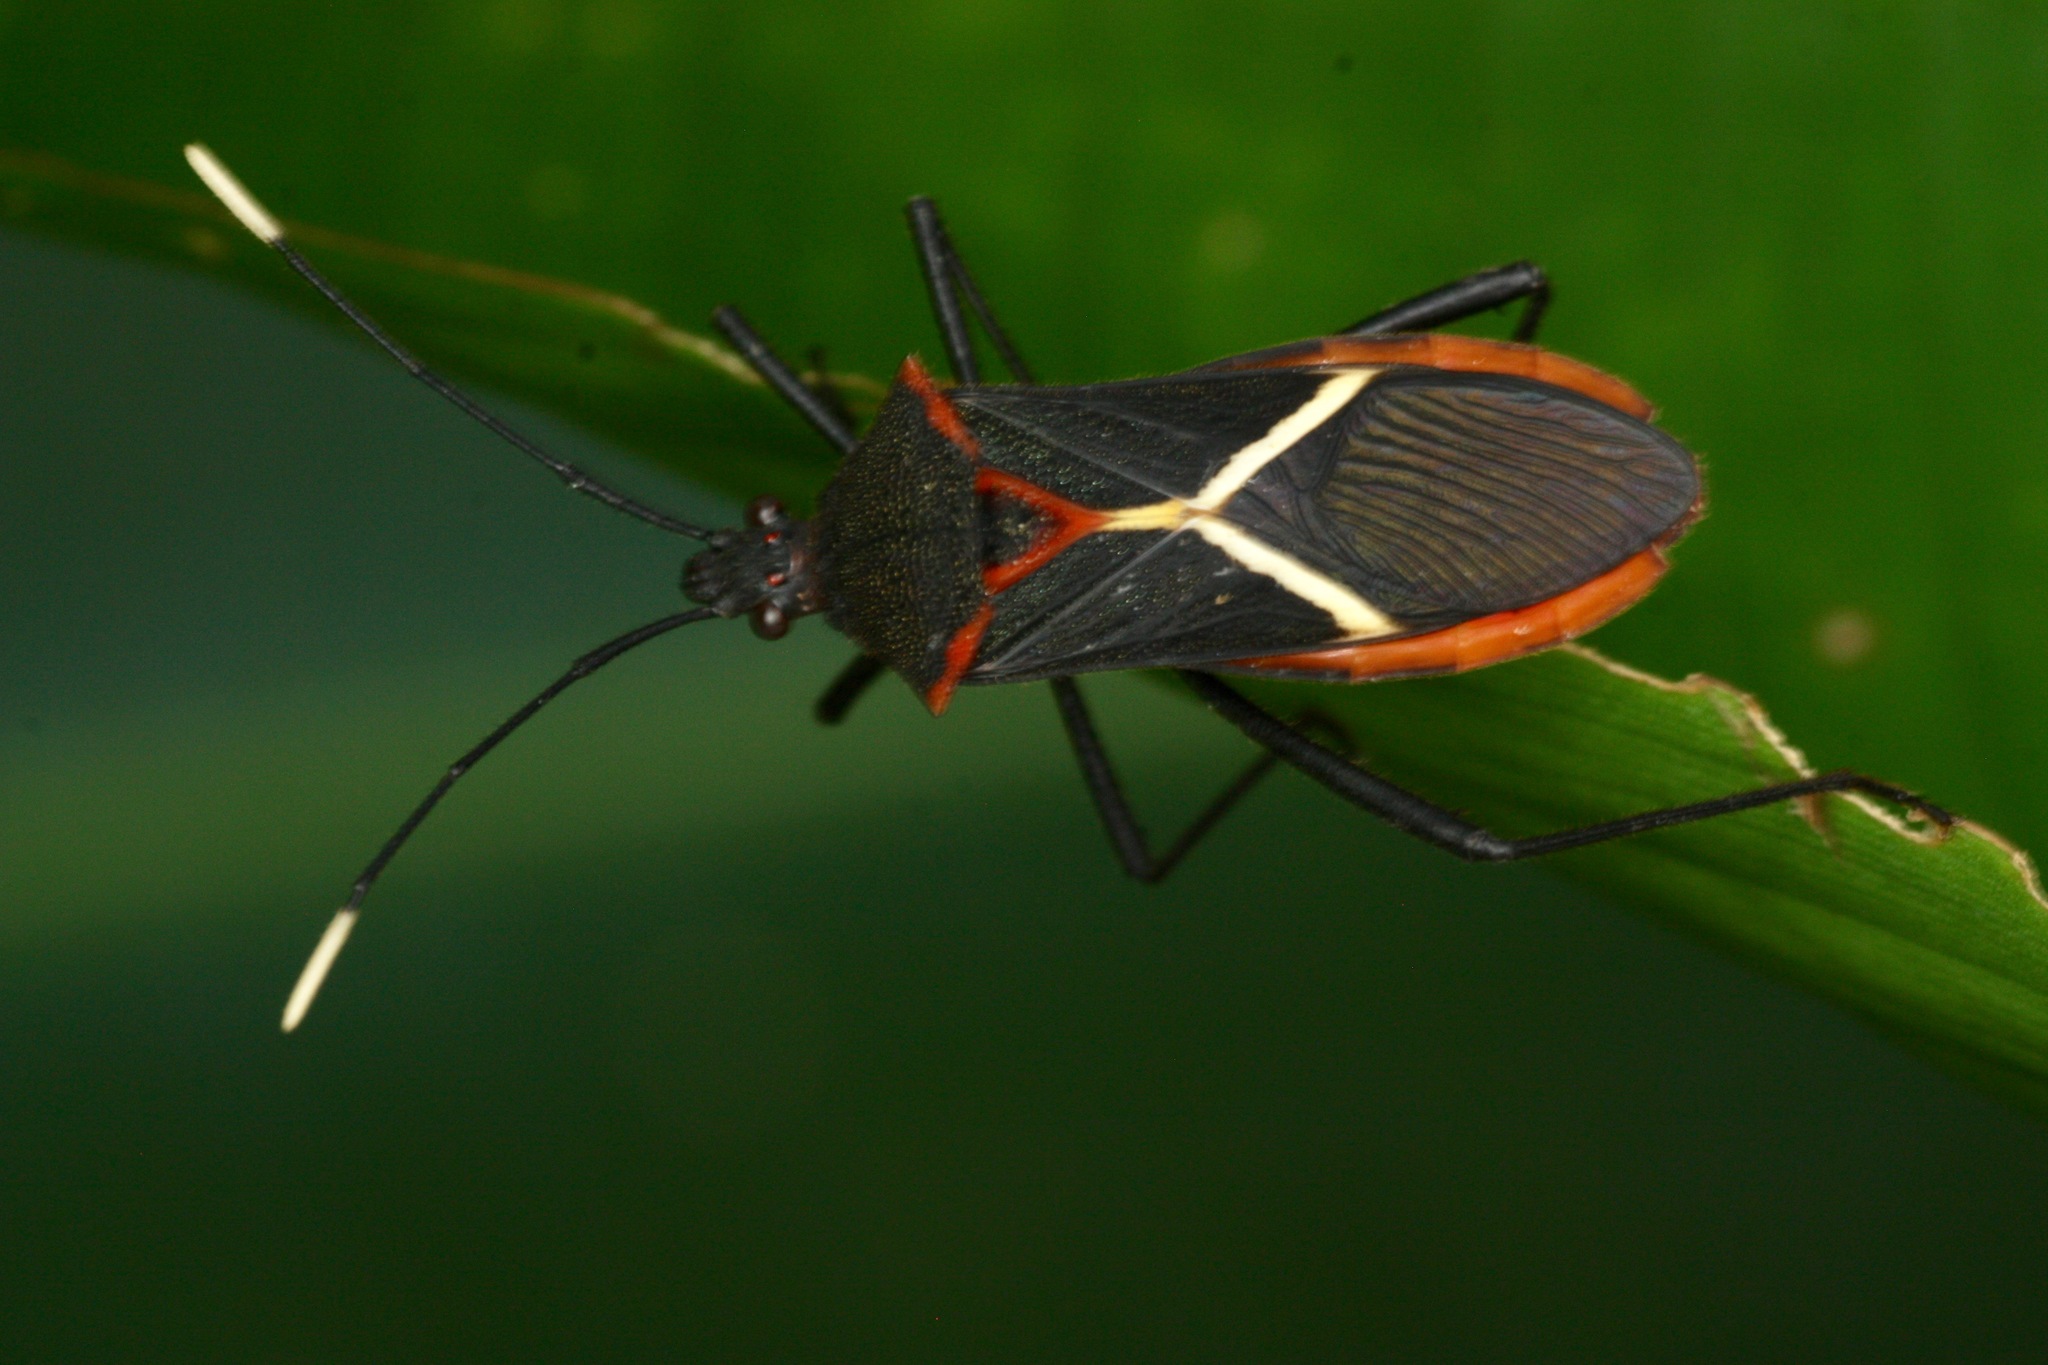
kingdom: Animalia
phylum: Arthropoda
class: Insecta
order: Hemiptera
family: Coreidae
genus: Leptoscelis
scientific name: Leptoscelis tricolor
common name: Heliconia bug
